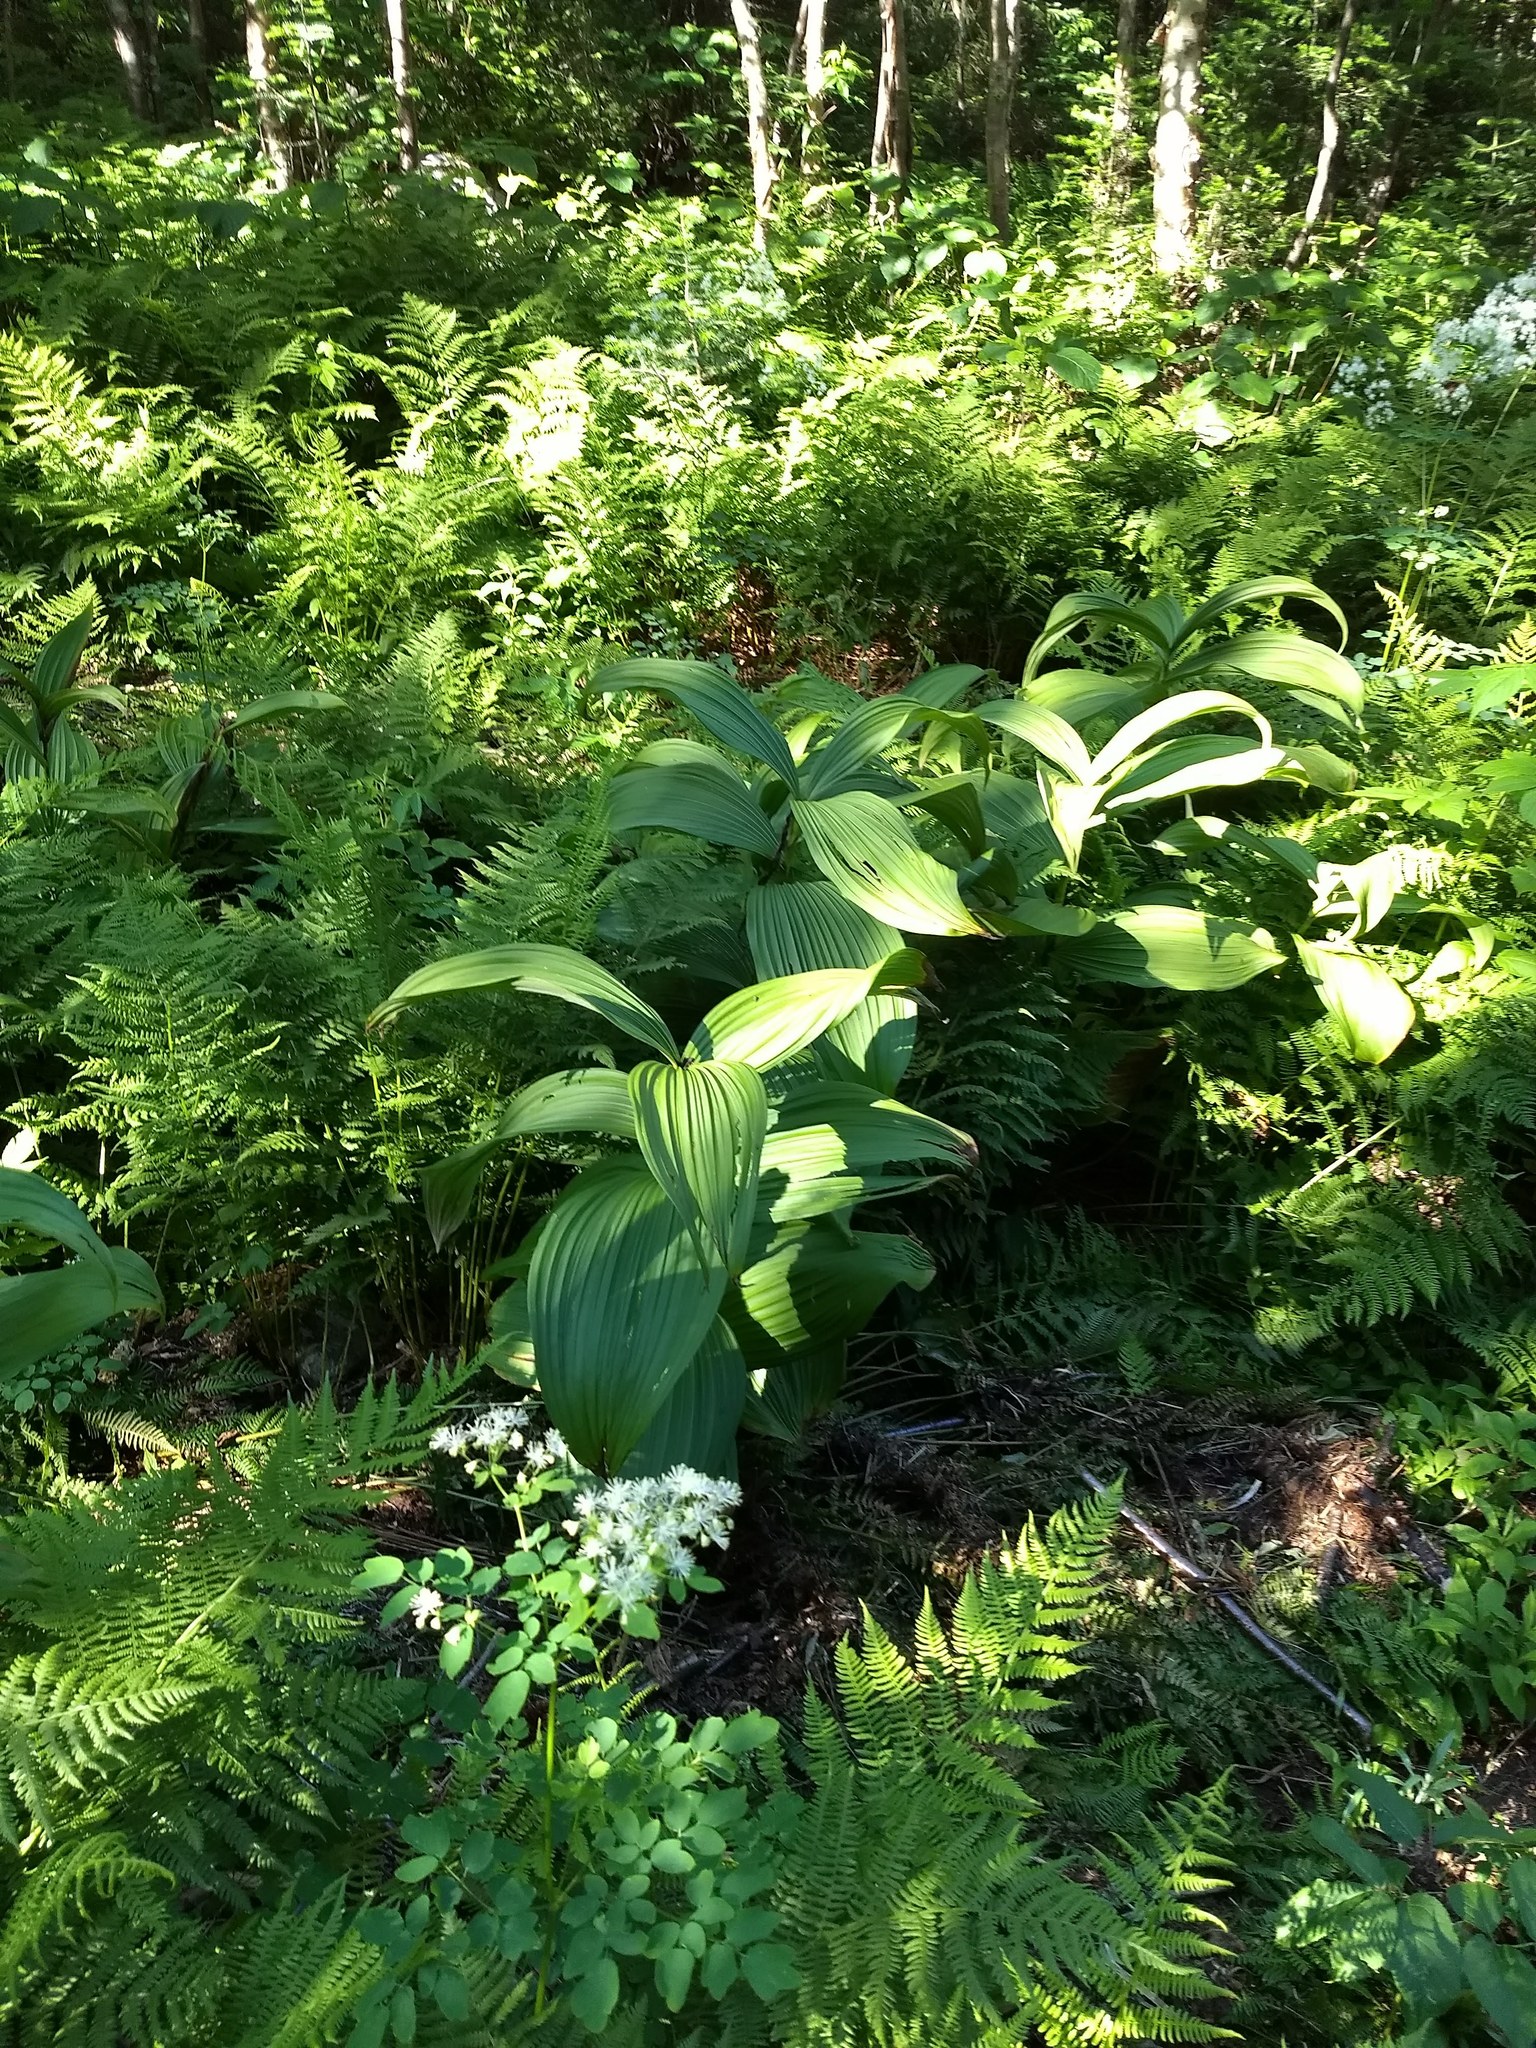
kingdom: Plantae
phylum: Tracheophyta
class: Liliopsida
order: Liliales
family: Melanthiaceae
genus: Veratrum
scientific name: Veratrum viride
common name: American false hellebore
